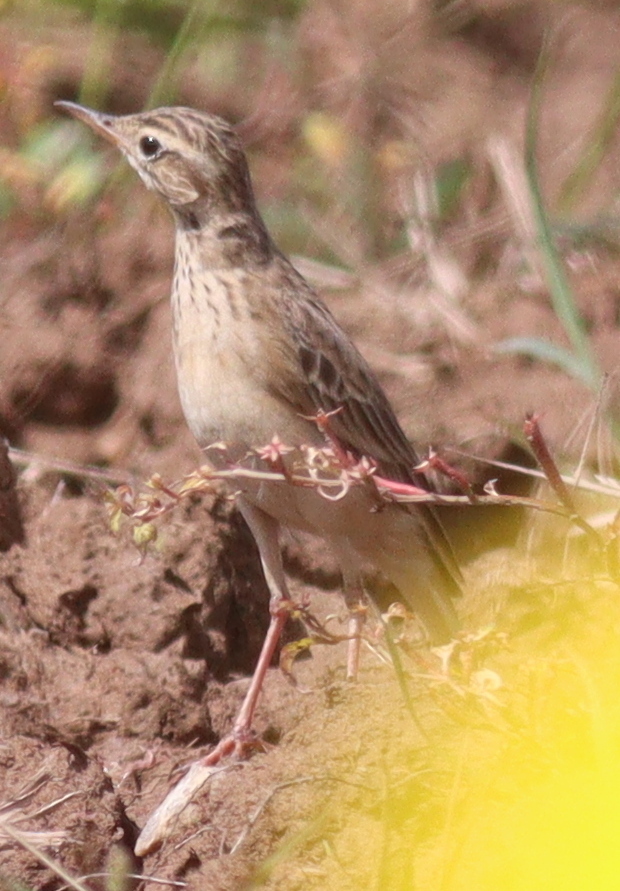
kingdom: Animalia
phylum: Chordata
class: Aves
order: Passeriformes
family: Motacillidae
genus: Anthus
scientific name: Anthus rufulus
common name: Paddyfield pipit
